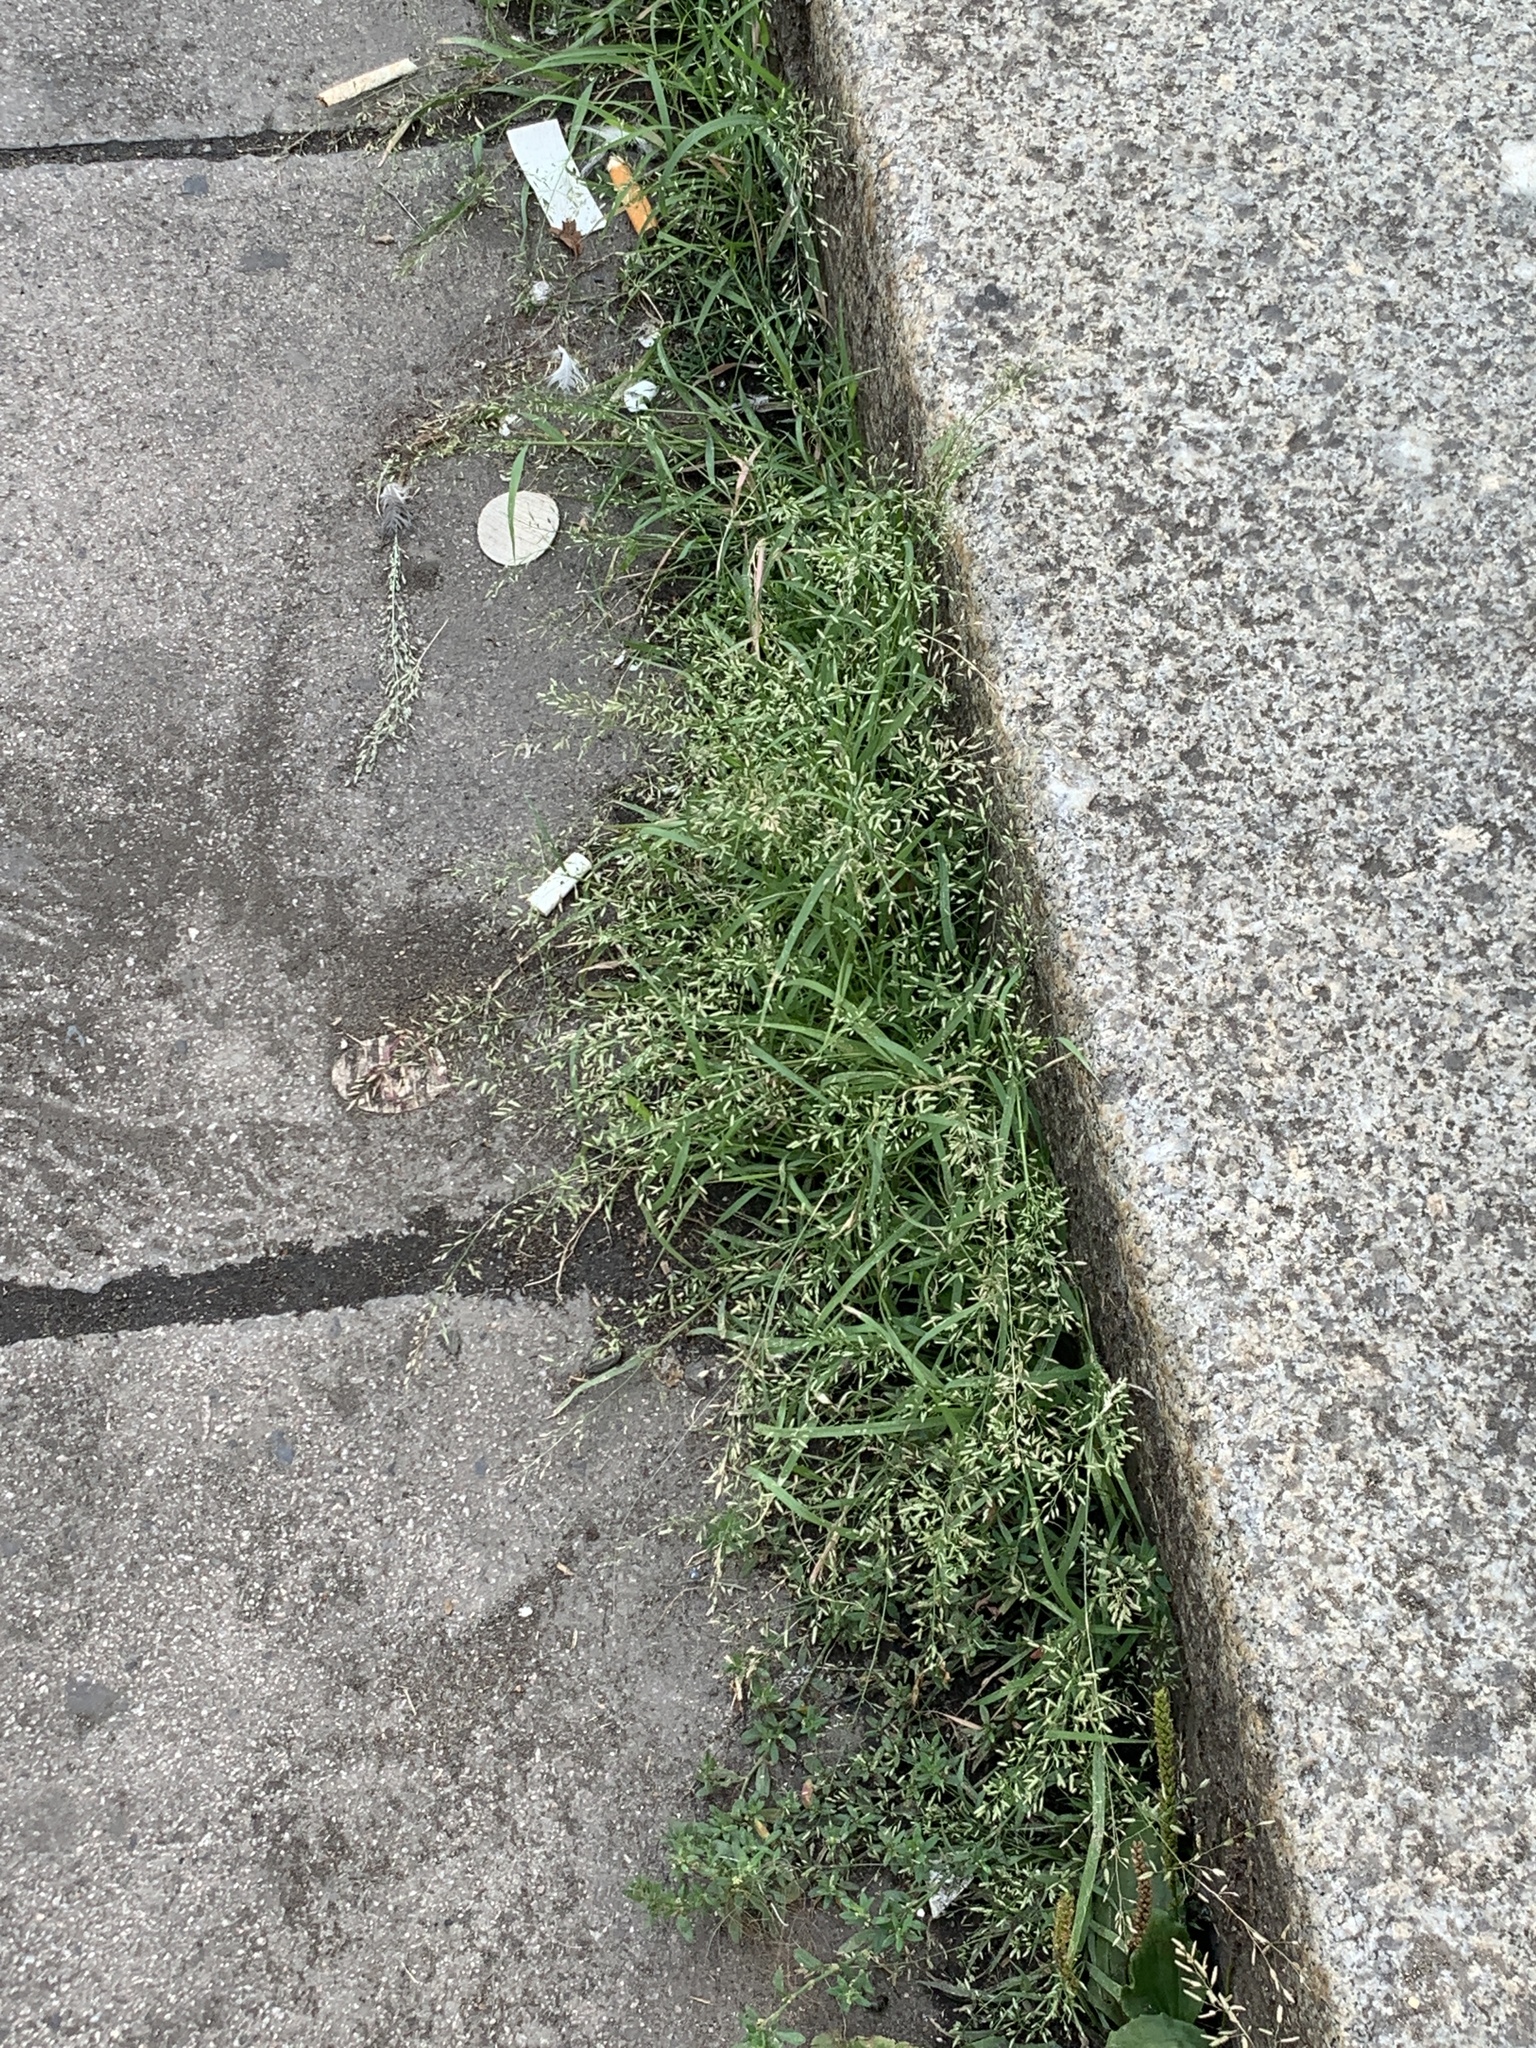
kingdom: Plantae
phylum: Tracheophyta
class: Liliopsida
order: Poales
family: Poaceae
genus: Eragrostis
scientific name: Eragrostis minor
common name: Small love-grass
